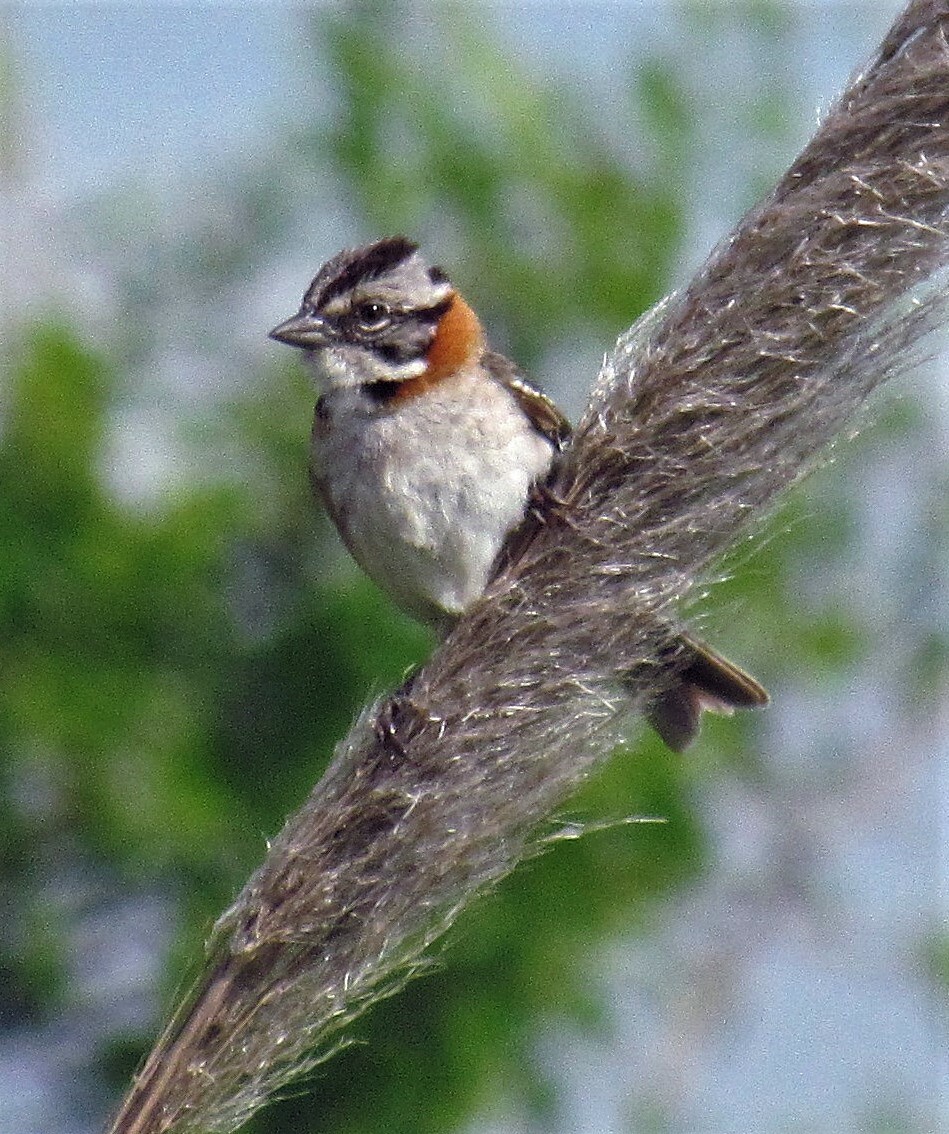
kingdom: Animalia
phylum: Chordata
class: Aves
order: Passeriformes
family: Passerellidae
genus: Zonotrichia
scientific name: Zonotrichia capensis
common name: Rufous-collared sparrow
